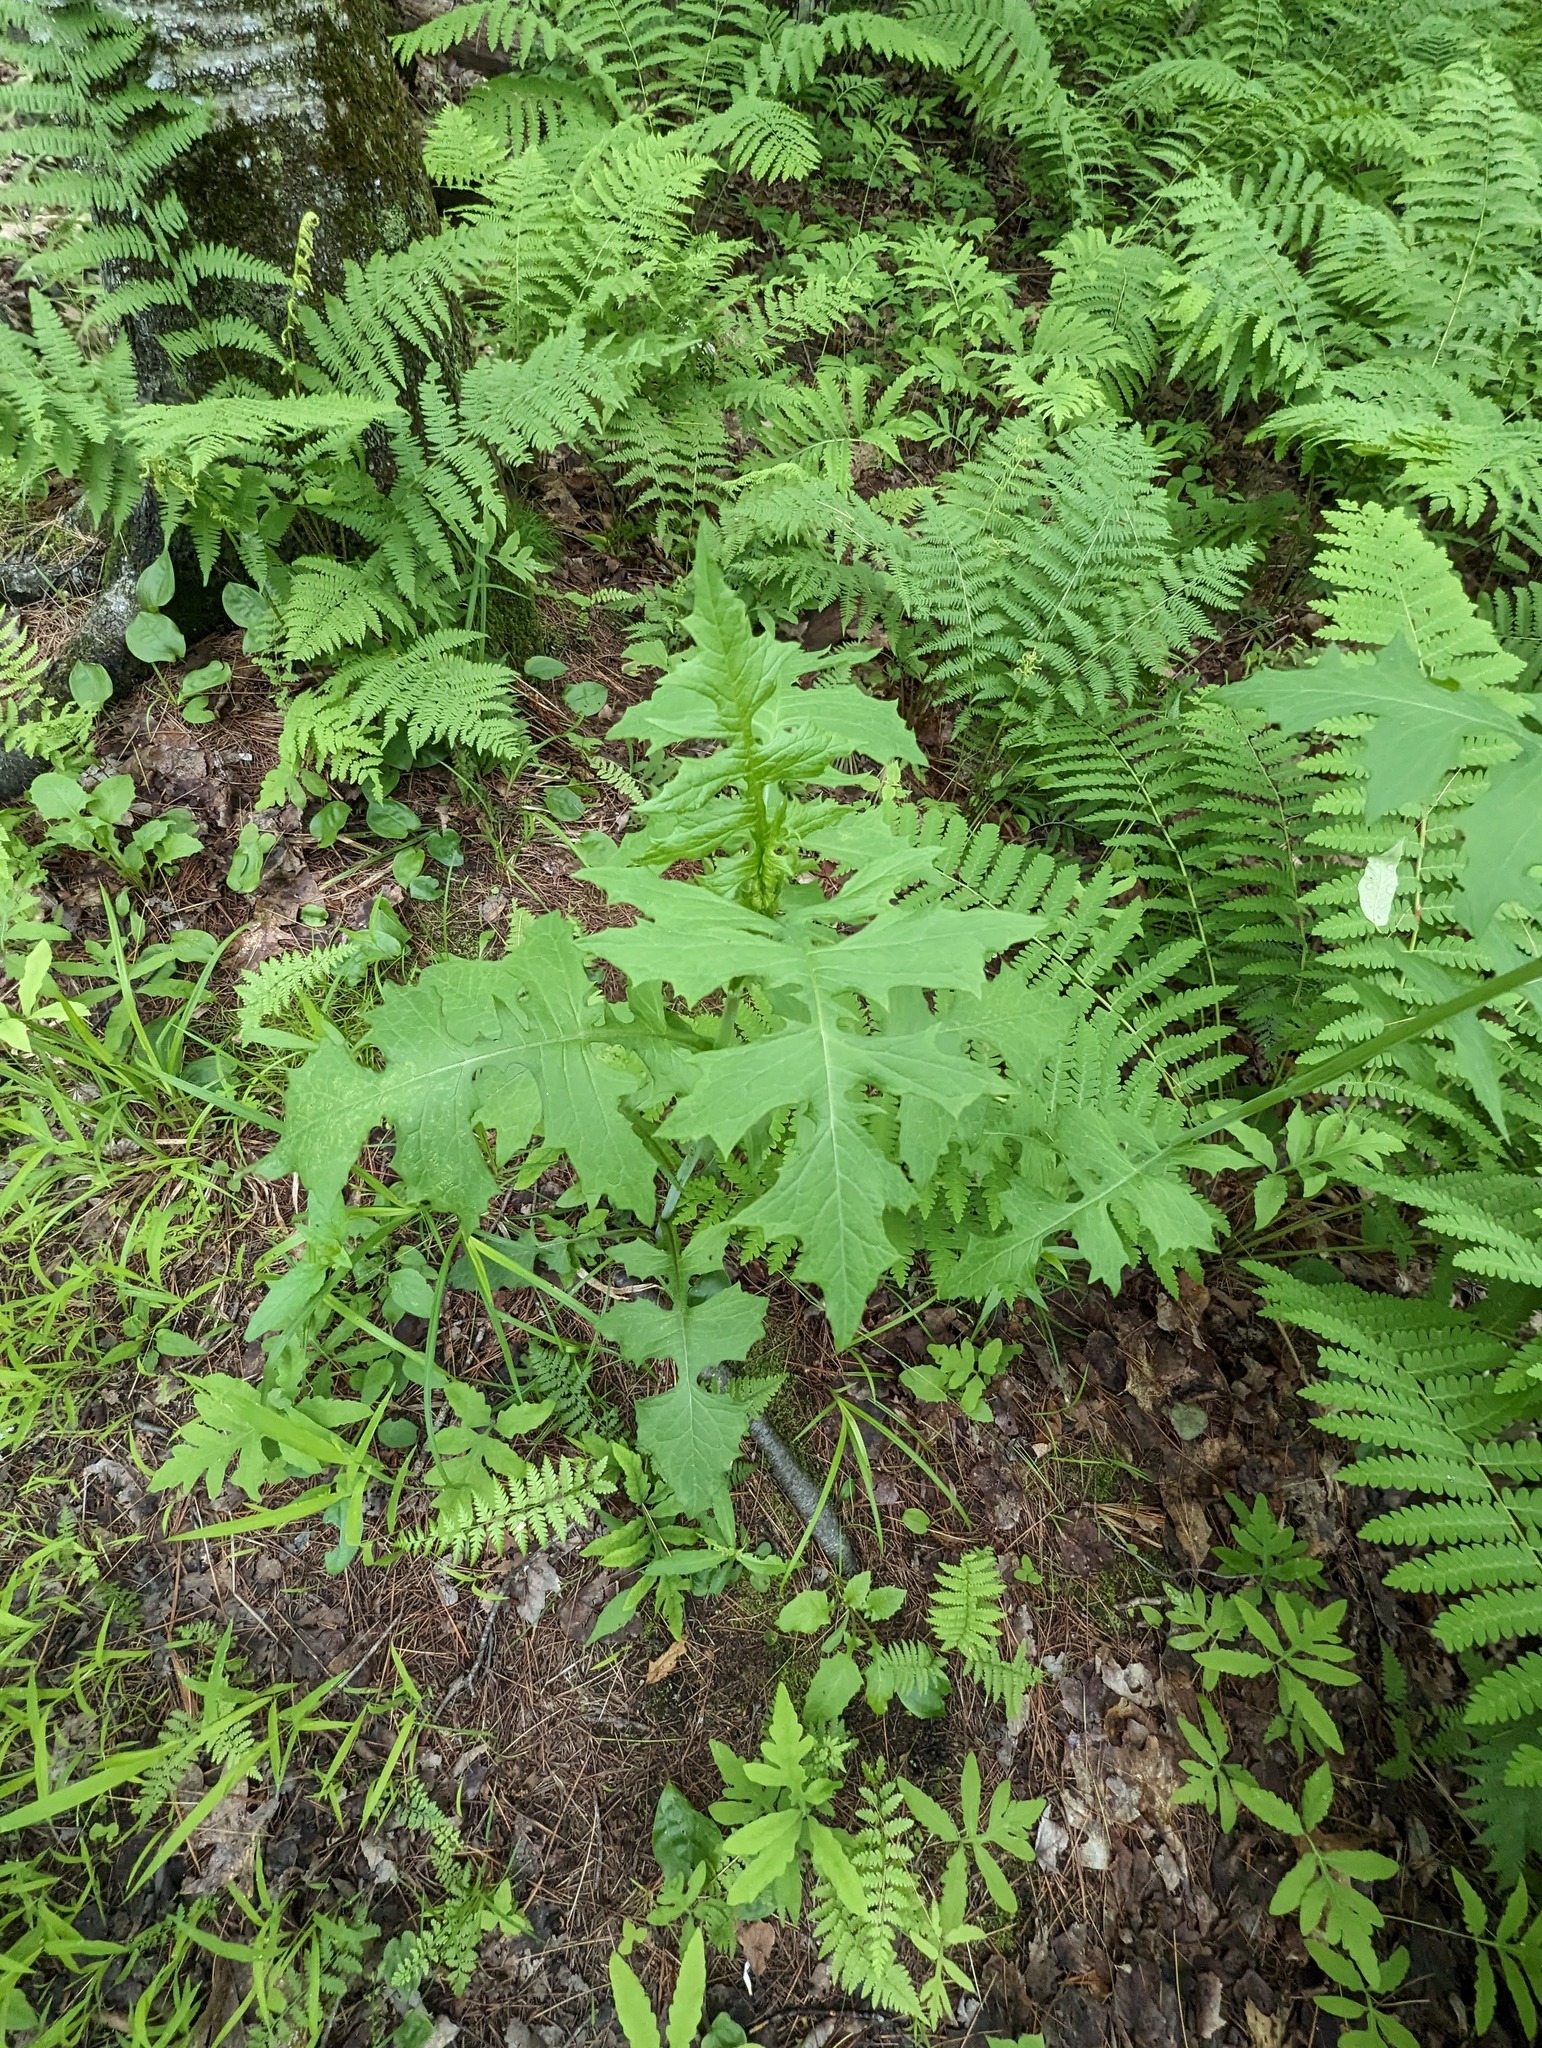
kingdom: Plantae
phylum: Tracheophyta
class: Magnoliopsida
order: Asterales
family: Asteraceae
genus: Lactuca
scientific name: Lactuca biennis
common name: Blue wood lettuce
